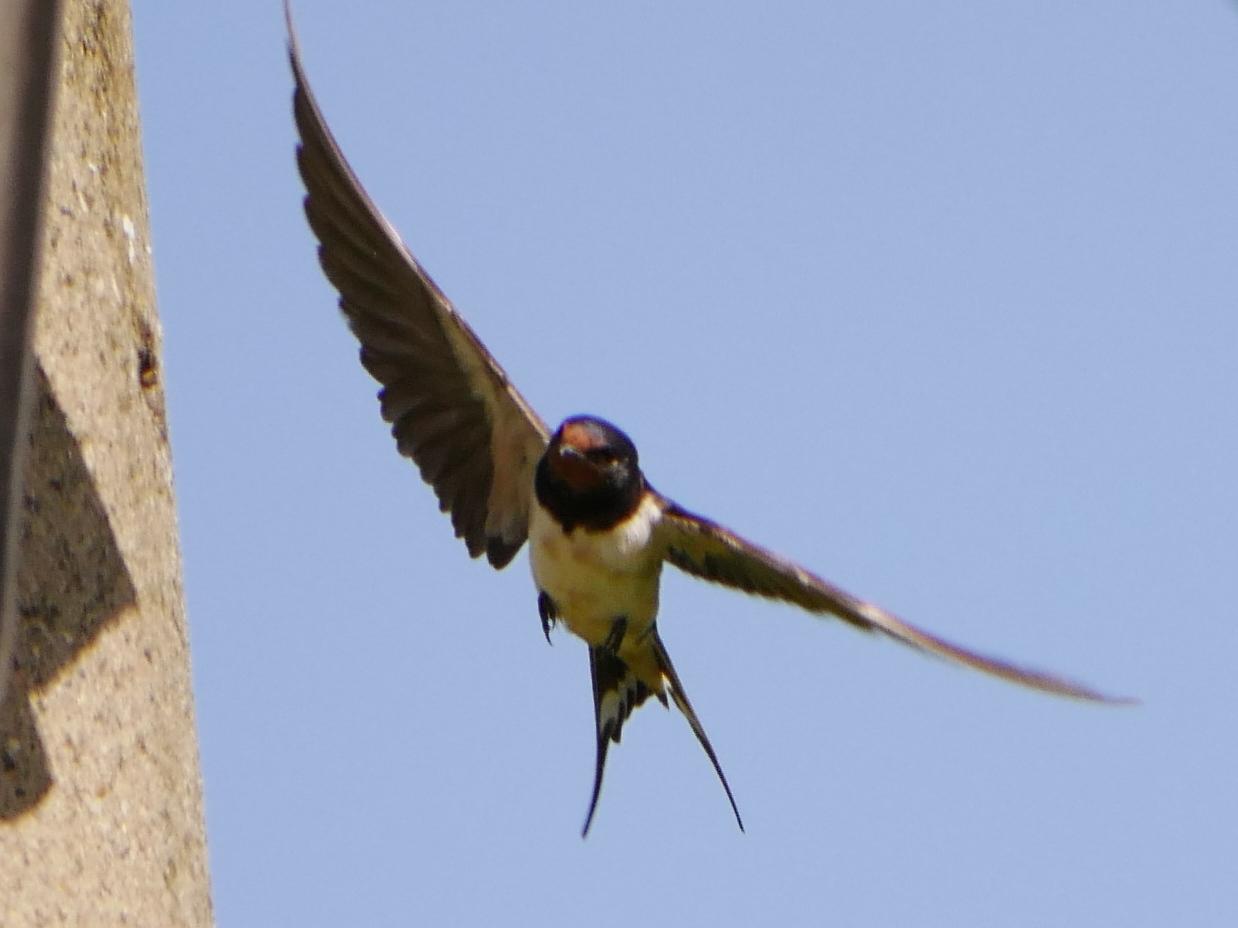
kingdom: Animalia
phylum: Chordata
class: Aves
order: Passeriformes
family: Hirundinidae
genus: Hirundo
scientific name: Hirundo rustica
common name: Barn swallow
